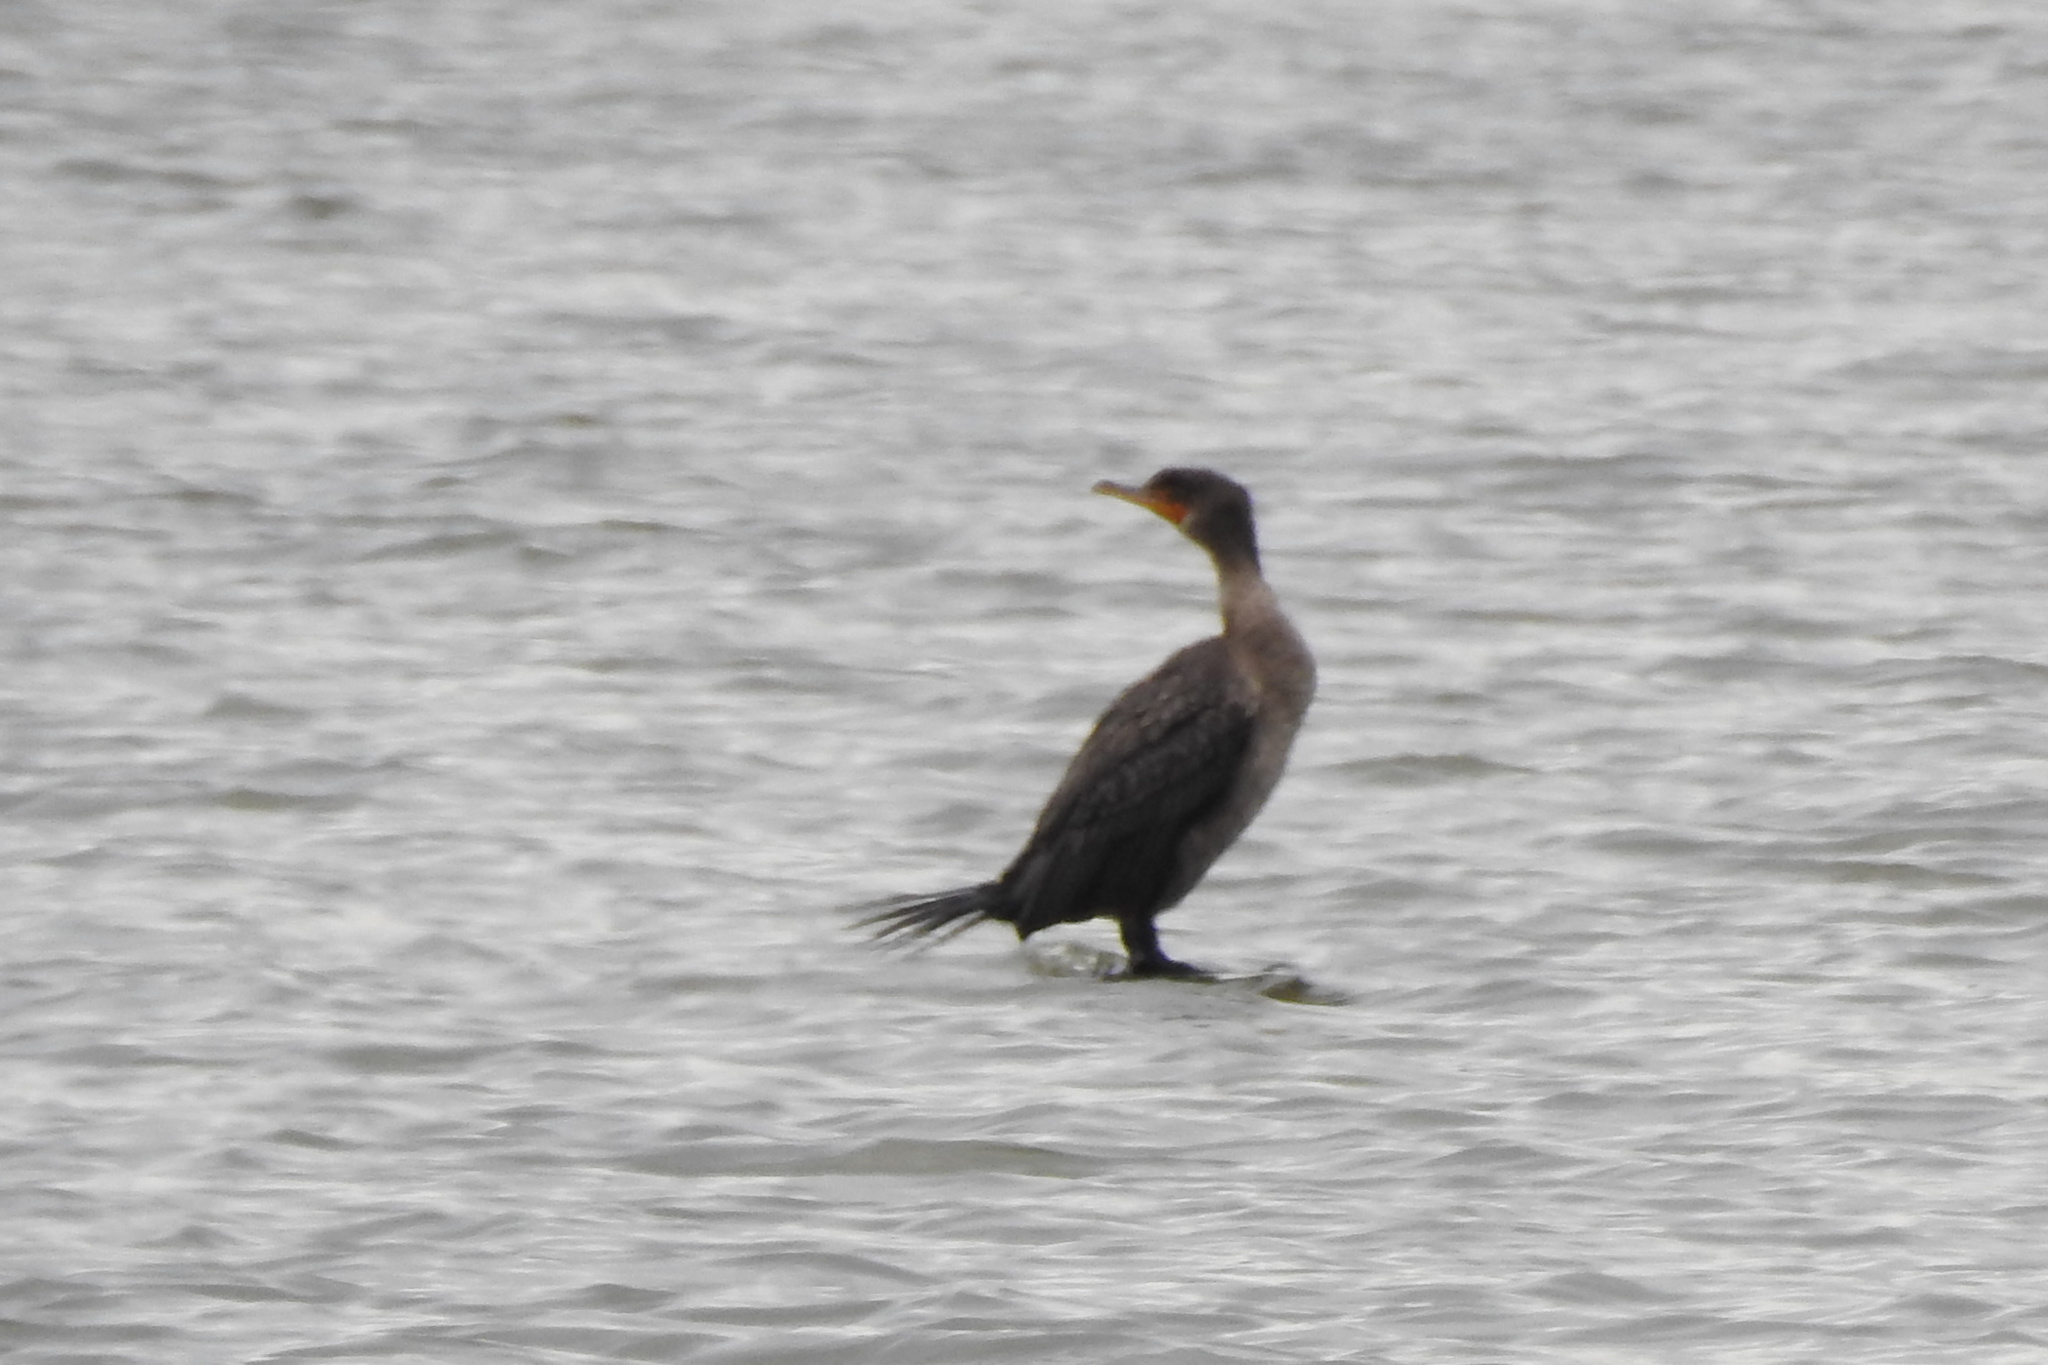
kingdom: Animalia
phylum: Chordata
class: Aves
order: Suliformes
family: Phalacrocoracidae
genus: Phalacrocorax
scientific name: Phalacrocorax auritus
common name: Double-crested cormorant
